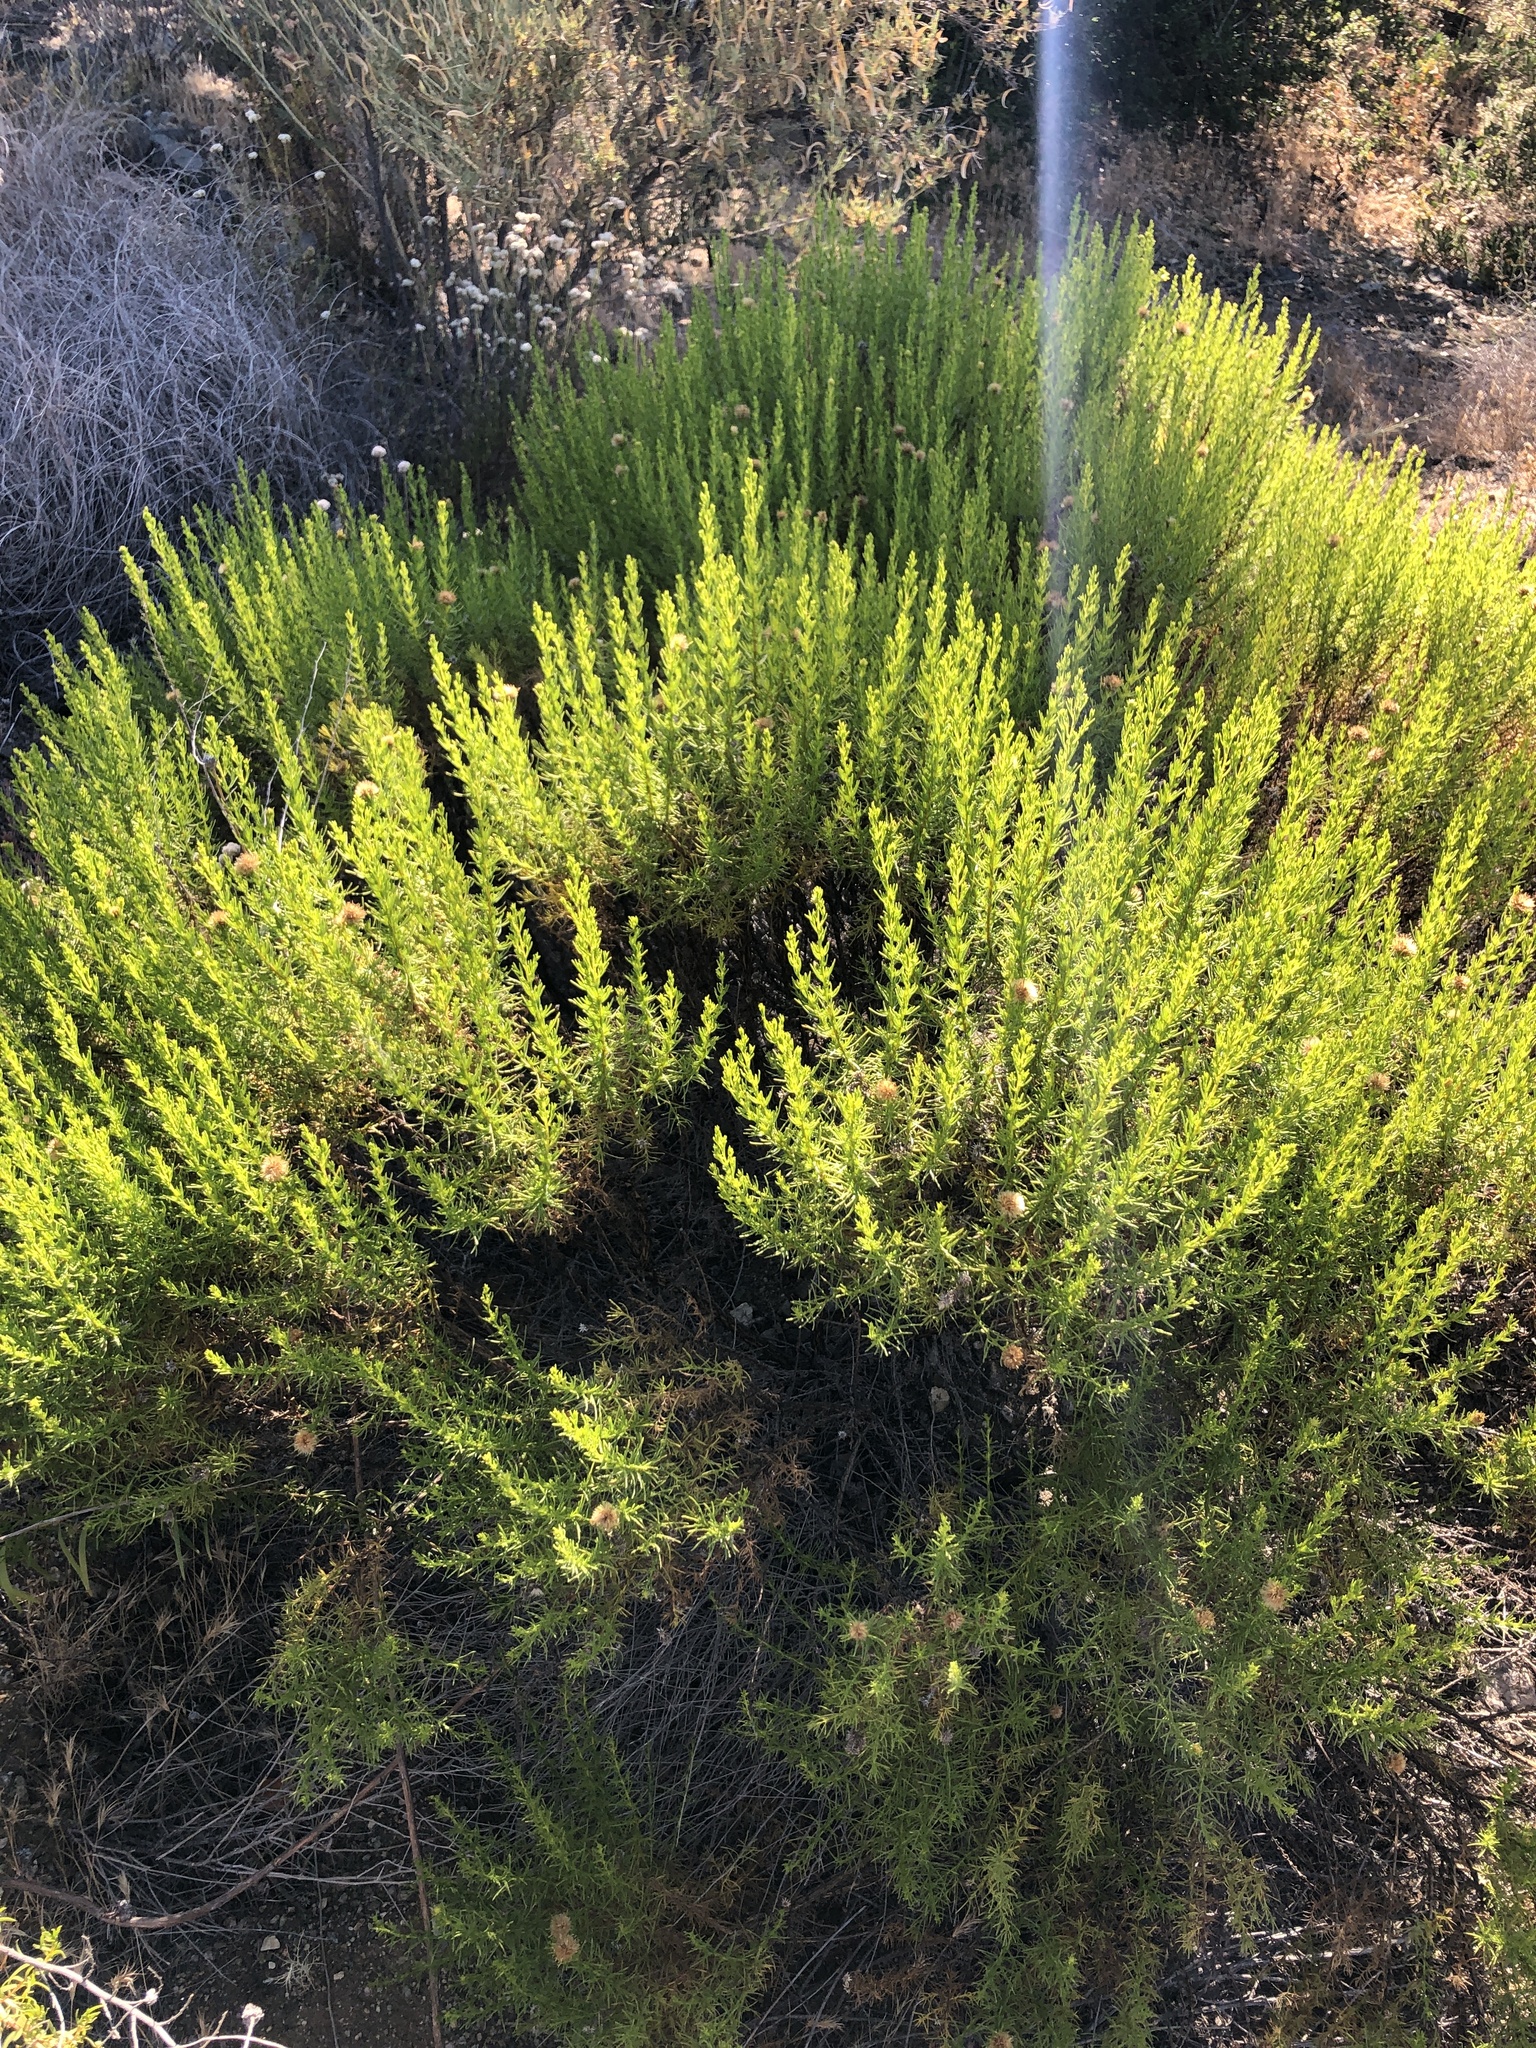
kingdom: Plantae
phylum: Tracheophyta
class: Magnoliopsida
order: Asterales
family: Asteraceae
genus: Ericameria
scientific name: Ericameria pinifolia
